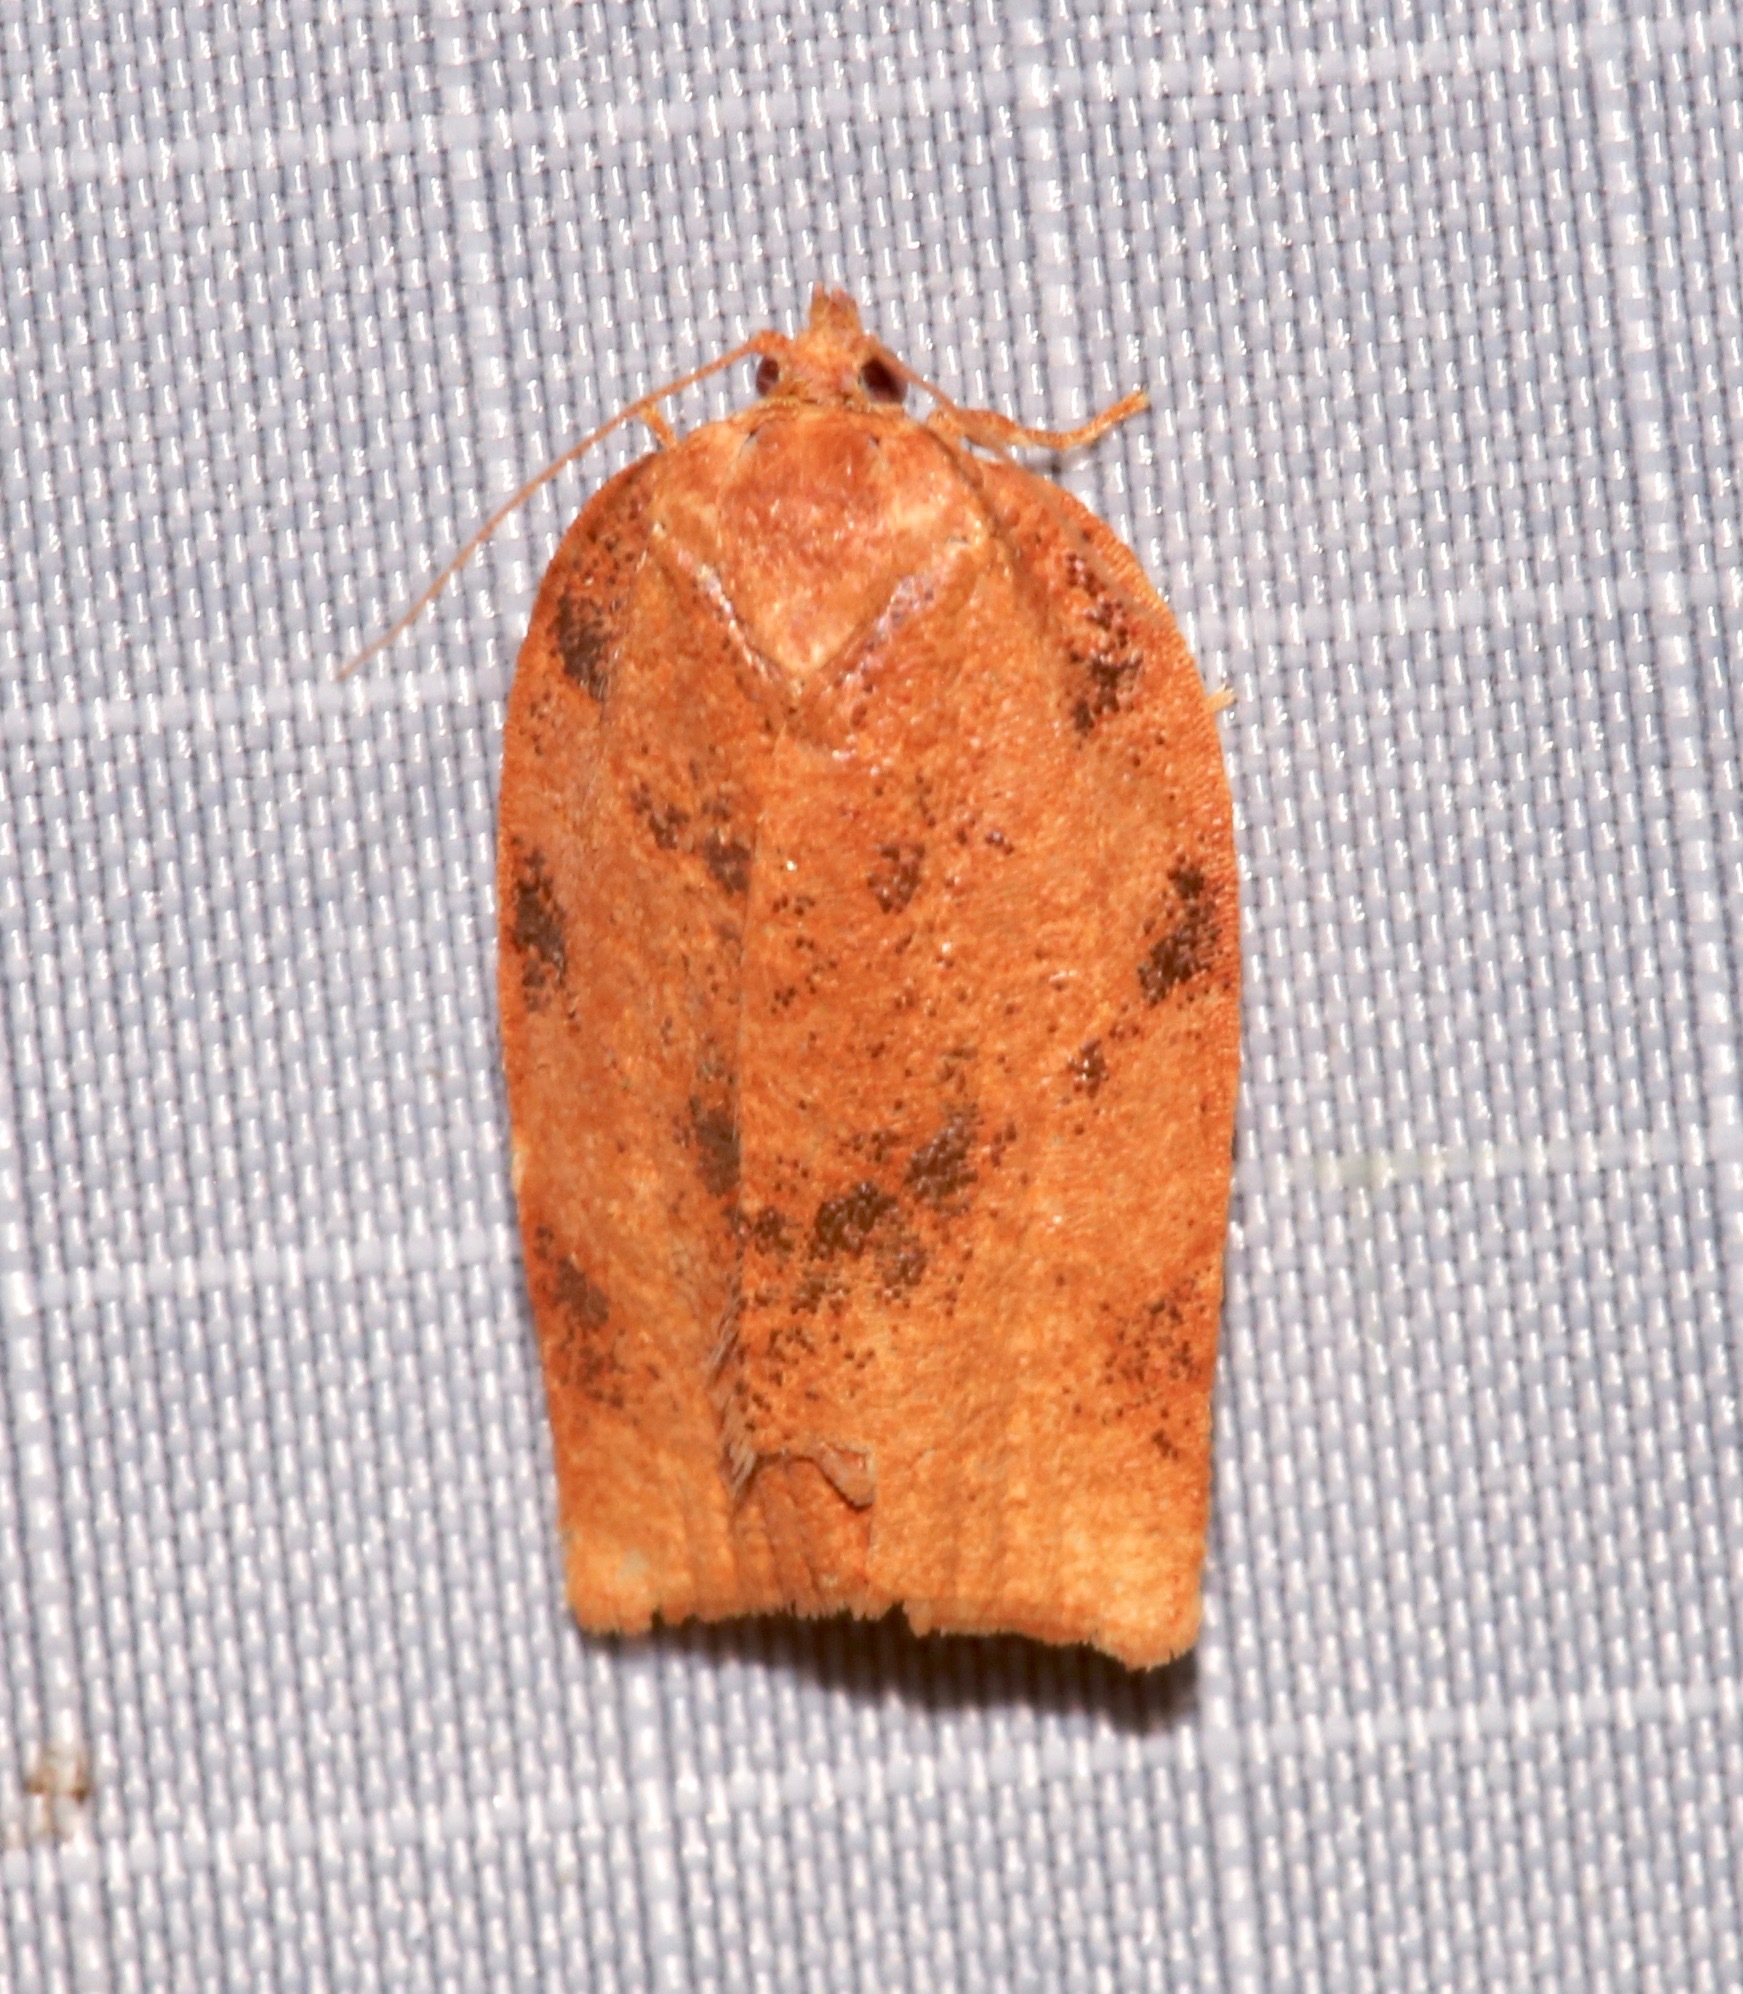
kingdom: Animalia
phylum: Arthropoda
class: Insecta
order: Lepidoptera
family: Tortricidae
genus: Choristoneura
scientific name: Choristoneura obsoletana
